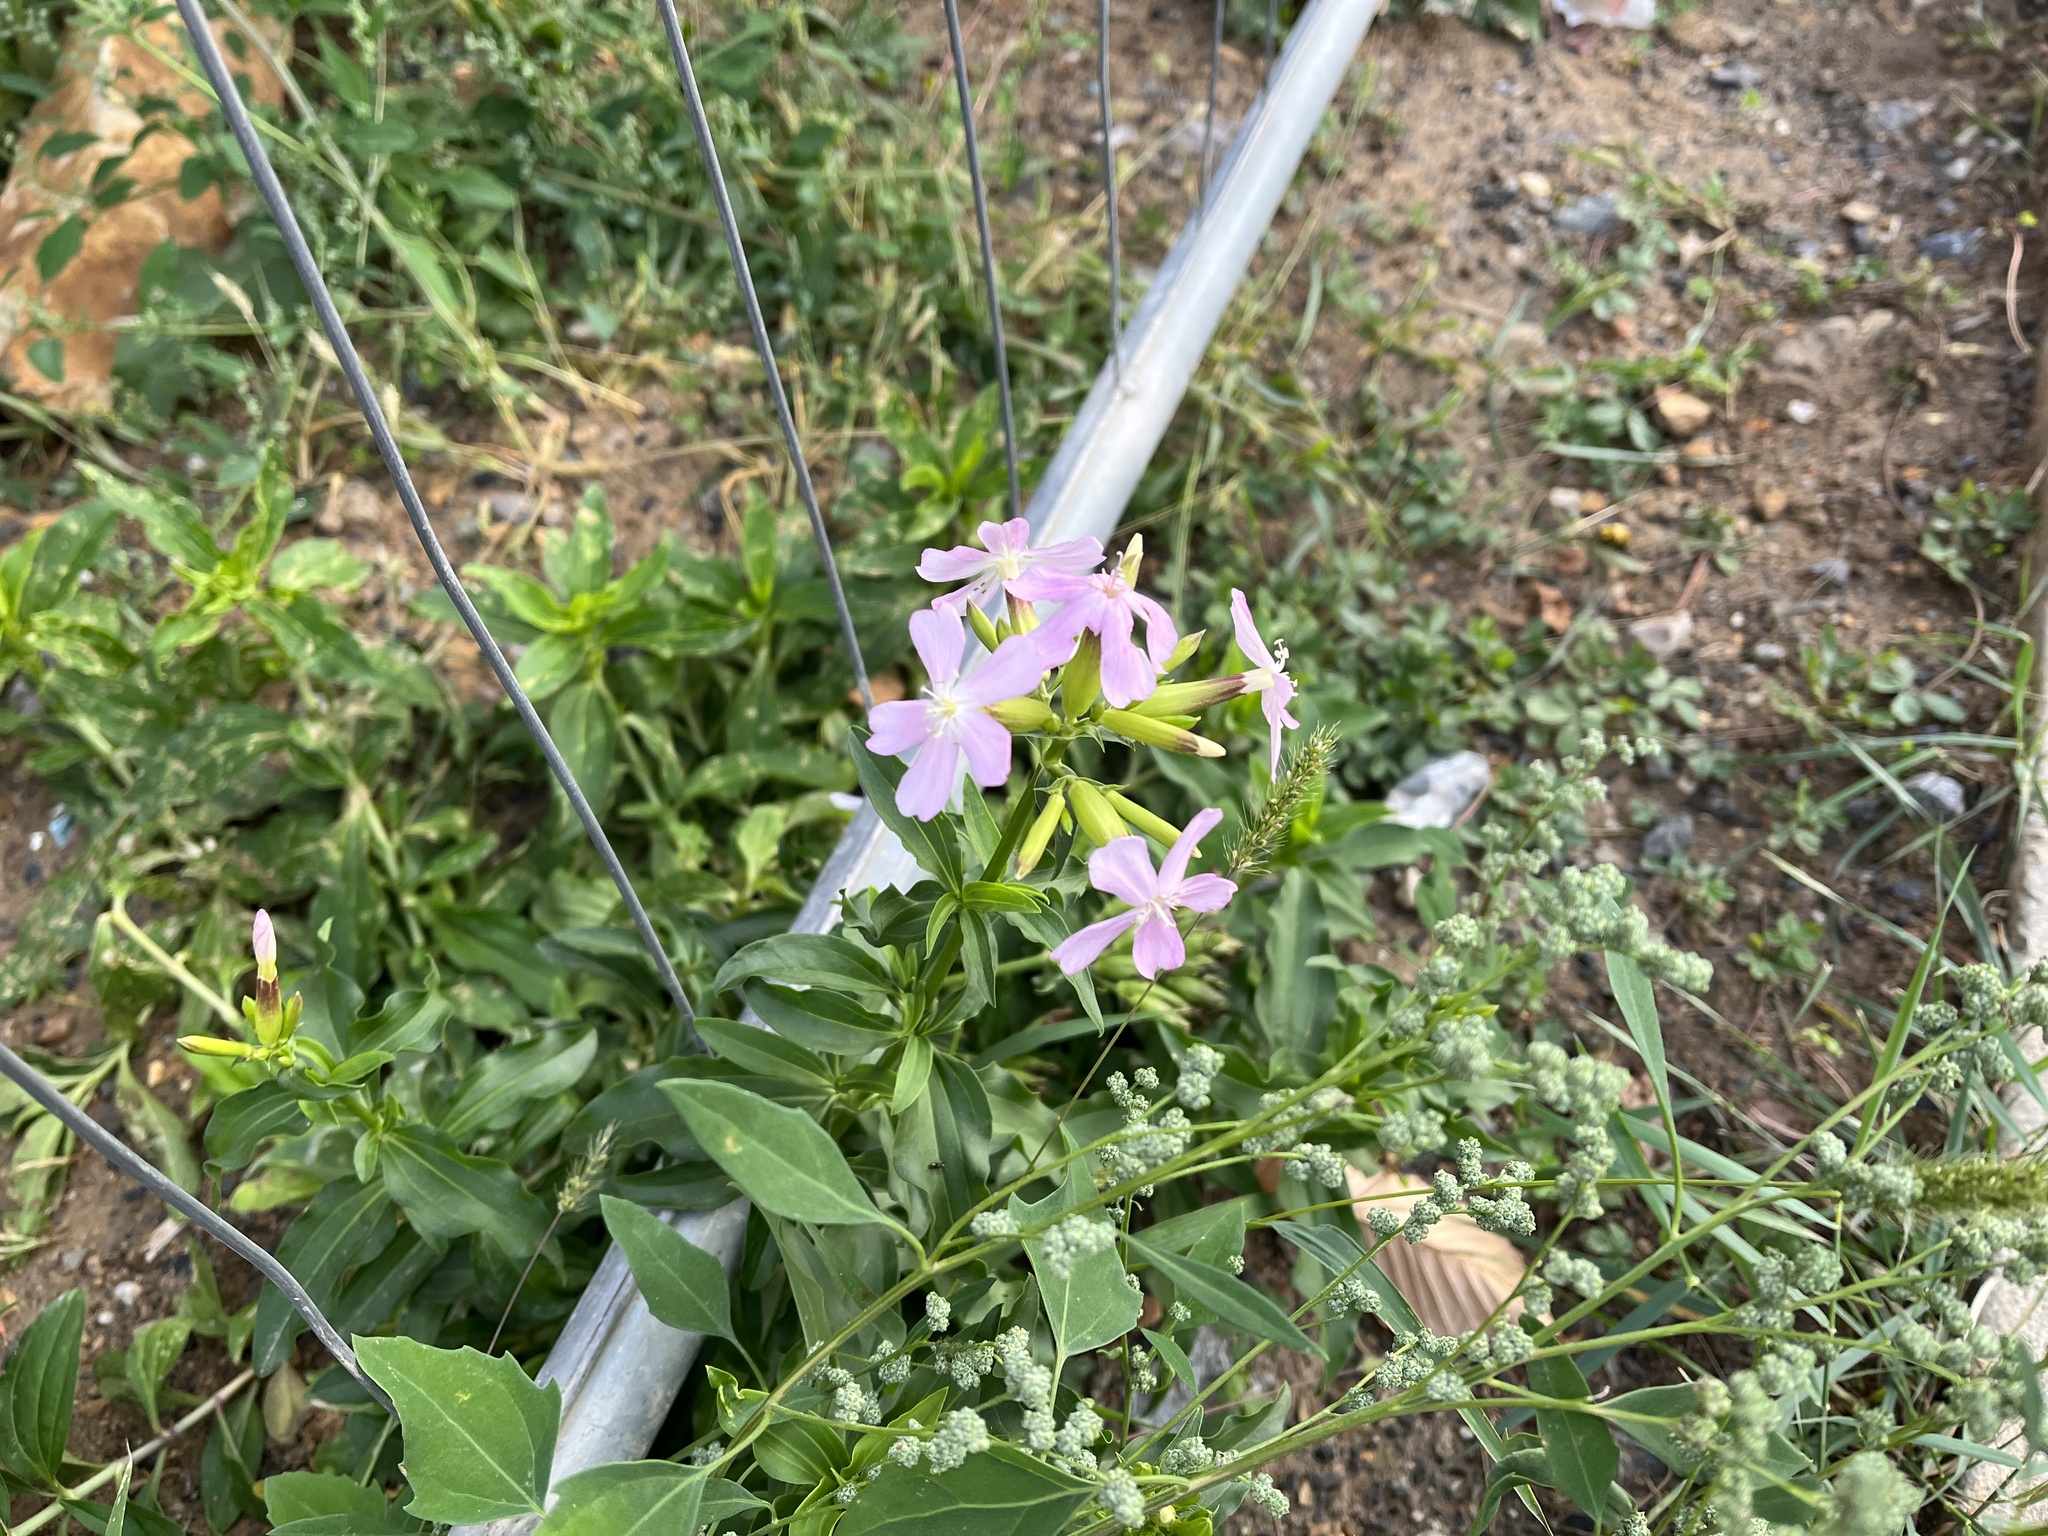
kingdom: Plantae
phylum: Tracheophyta
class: Magnoliopsida
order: Caryophyllales
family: Caryophyllaceae
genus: Saponaria
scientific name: Saponaria officinalis
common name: Soapwort
